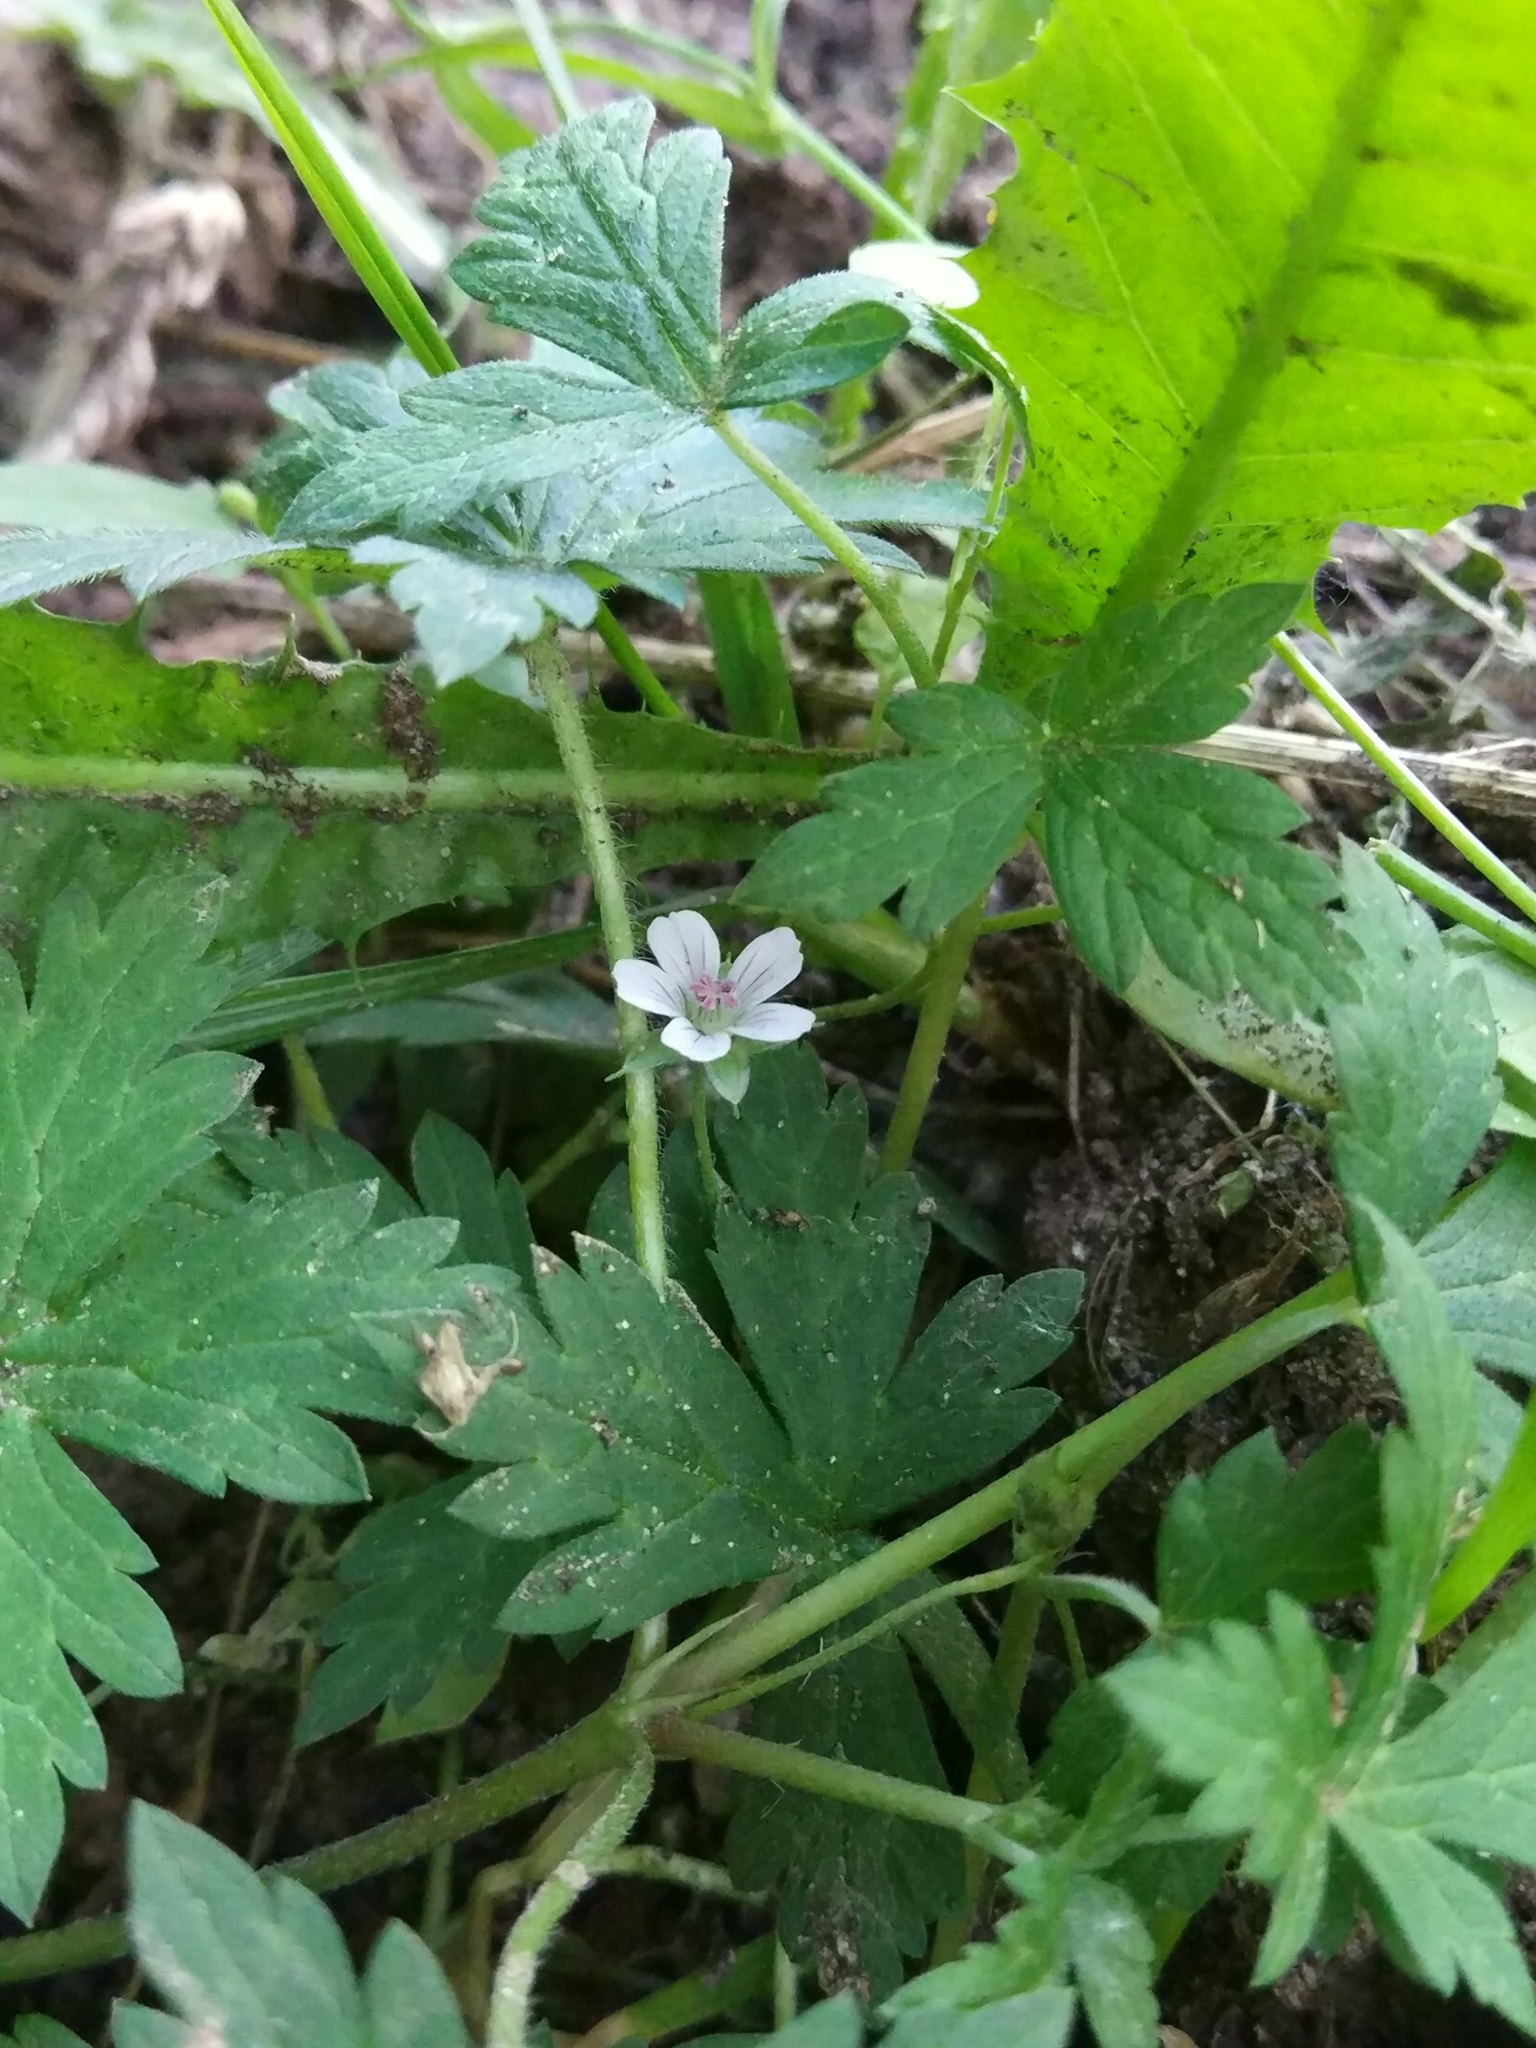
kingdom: Plantae
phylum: Tracheophyta
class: Magnoliopsida
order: Geraniales
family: Geraniaceae
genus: Geranium
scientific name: Geranium sibiricum
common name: Siberian crane's-bill
